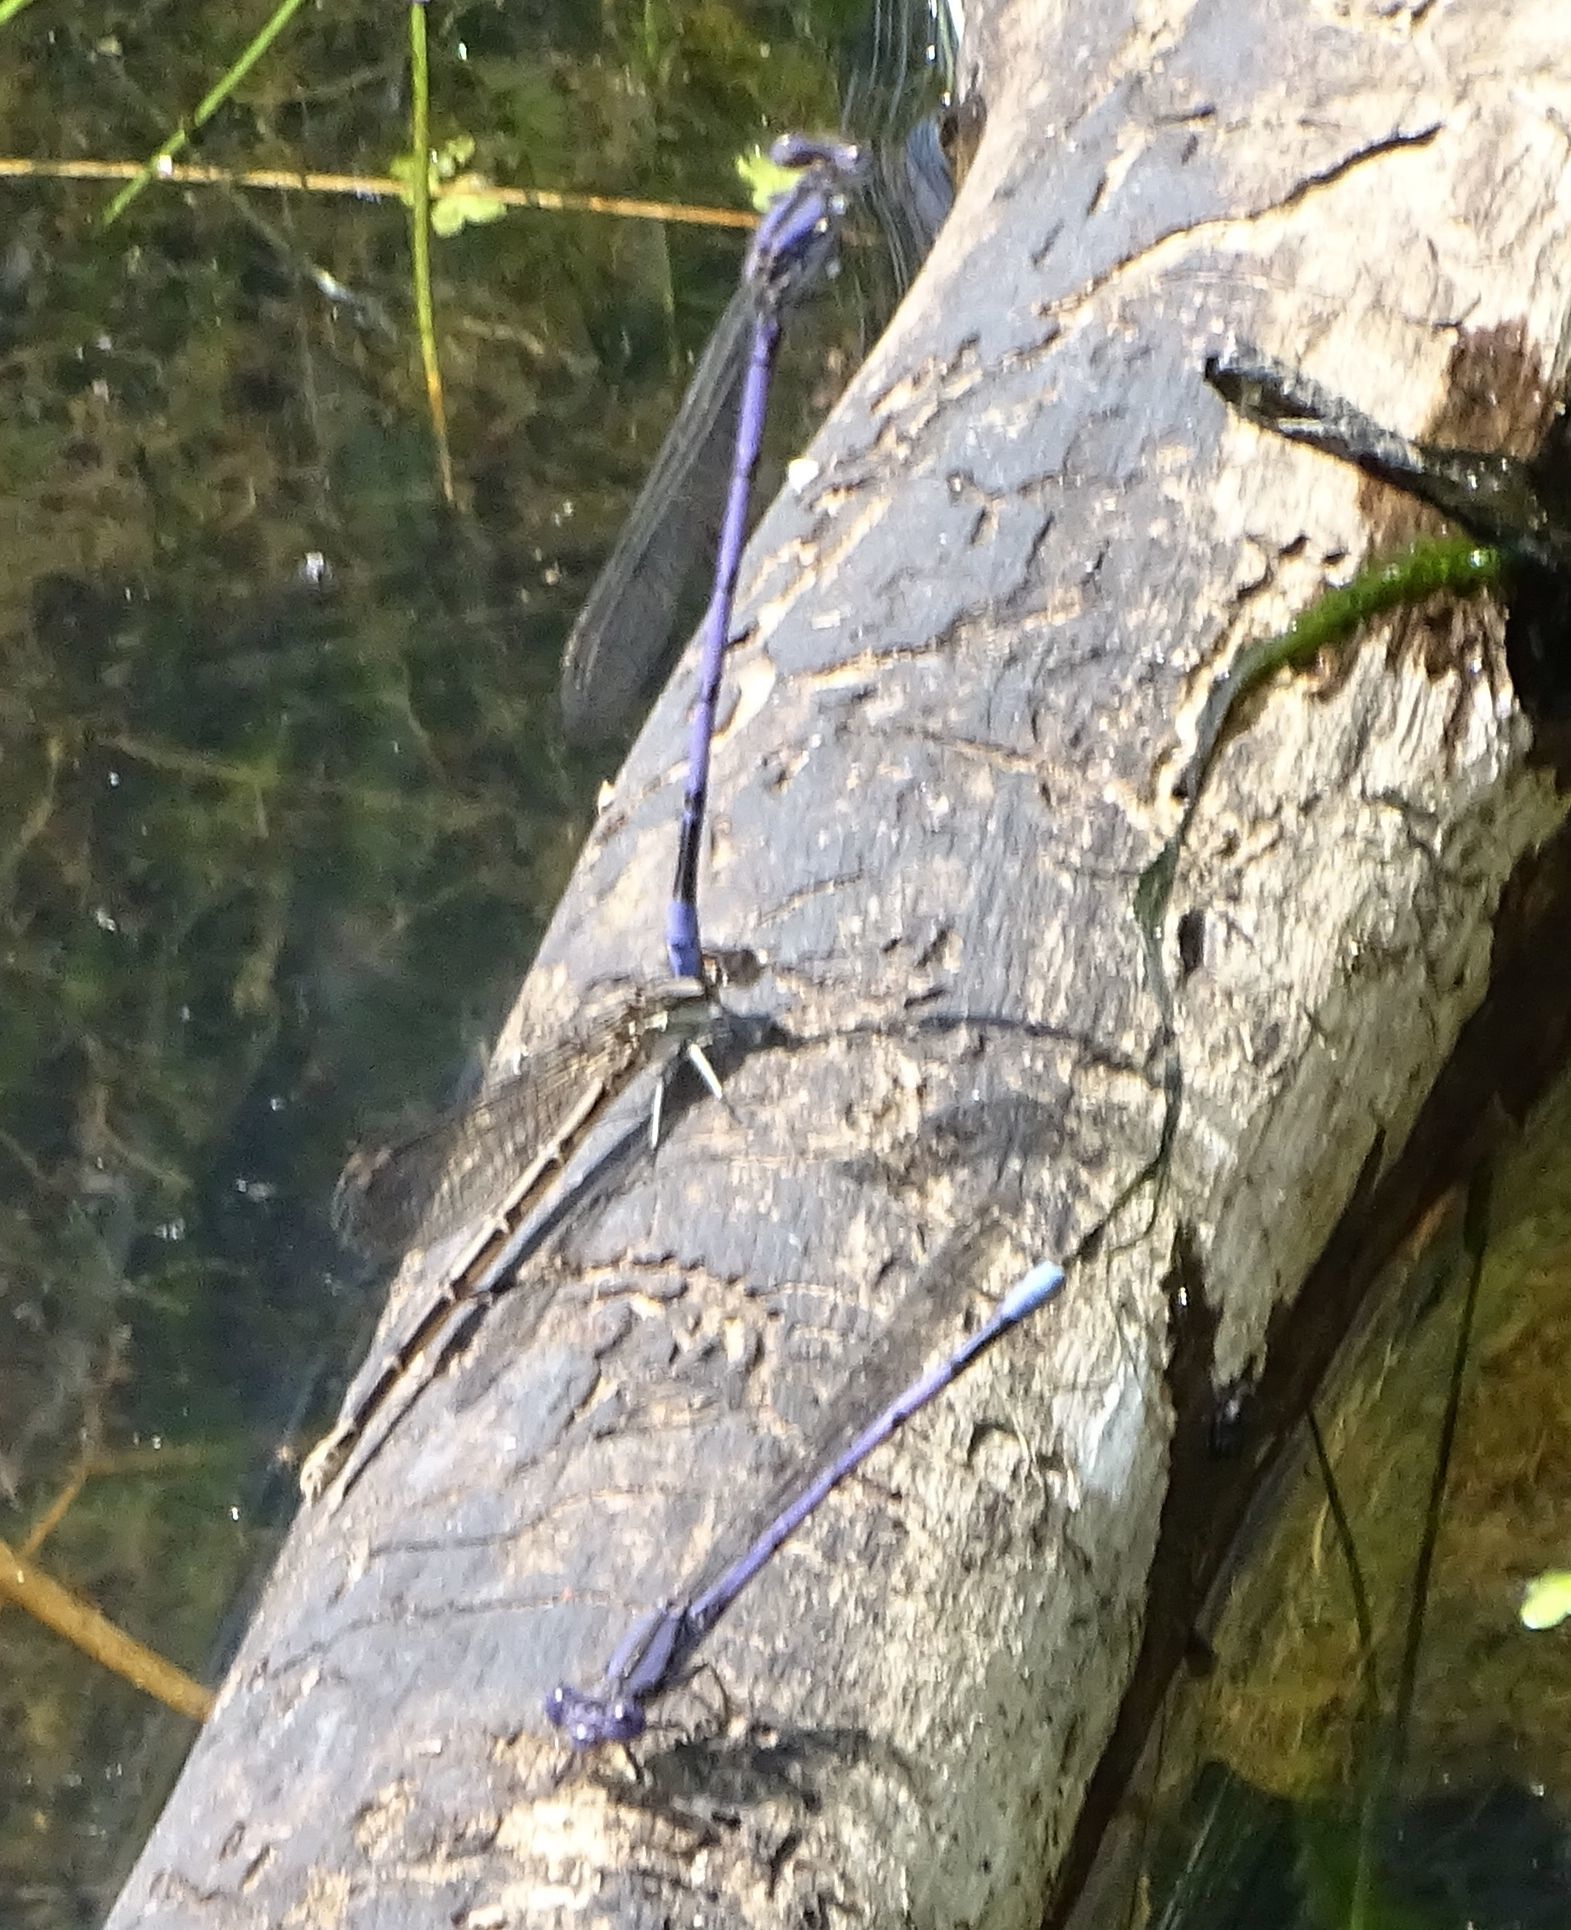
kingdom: Animalia
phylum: Arthropoda
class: Insecta
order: Odonata
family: Coenagrionidae
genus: Argia
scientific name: Argia fumipennis
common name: Variable dancer
